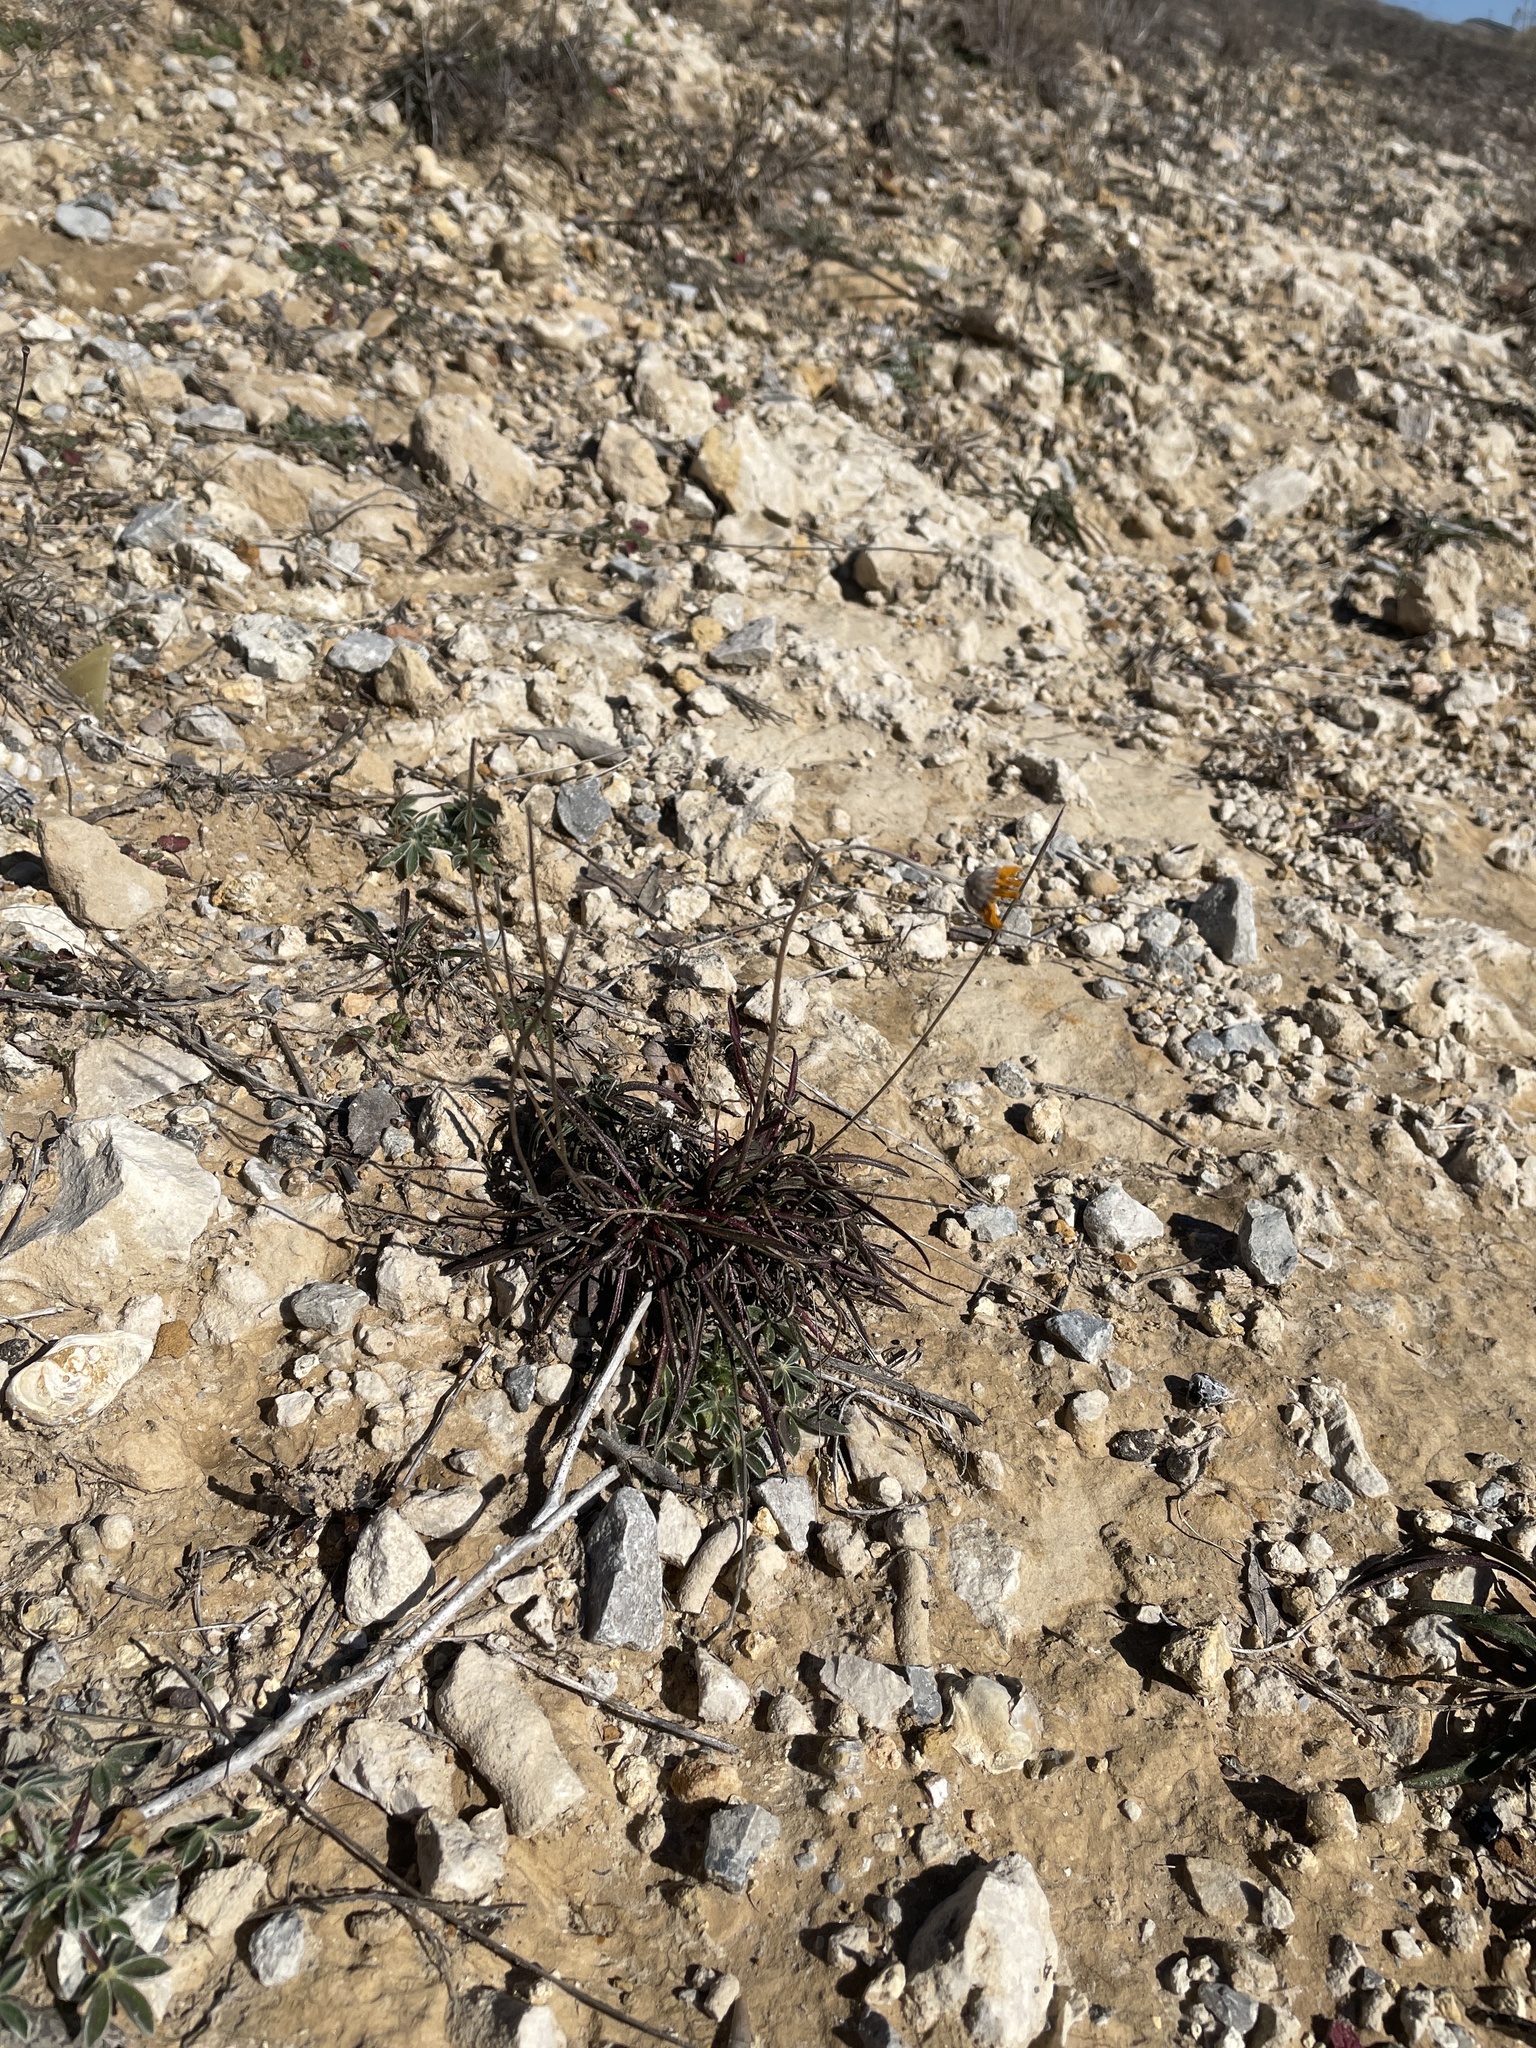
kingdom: Plantae
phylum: Tracheophyta
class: Magnoliopsida
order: Asterales
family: Asteraceae
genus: Tetraneuris
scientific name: Tetraneuris scaposa
